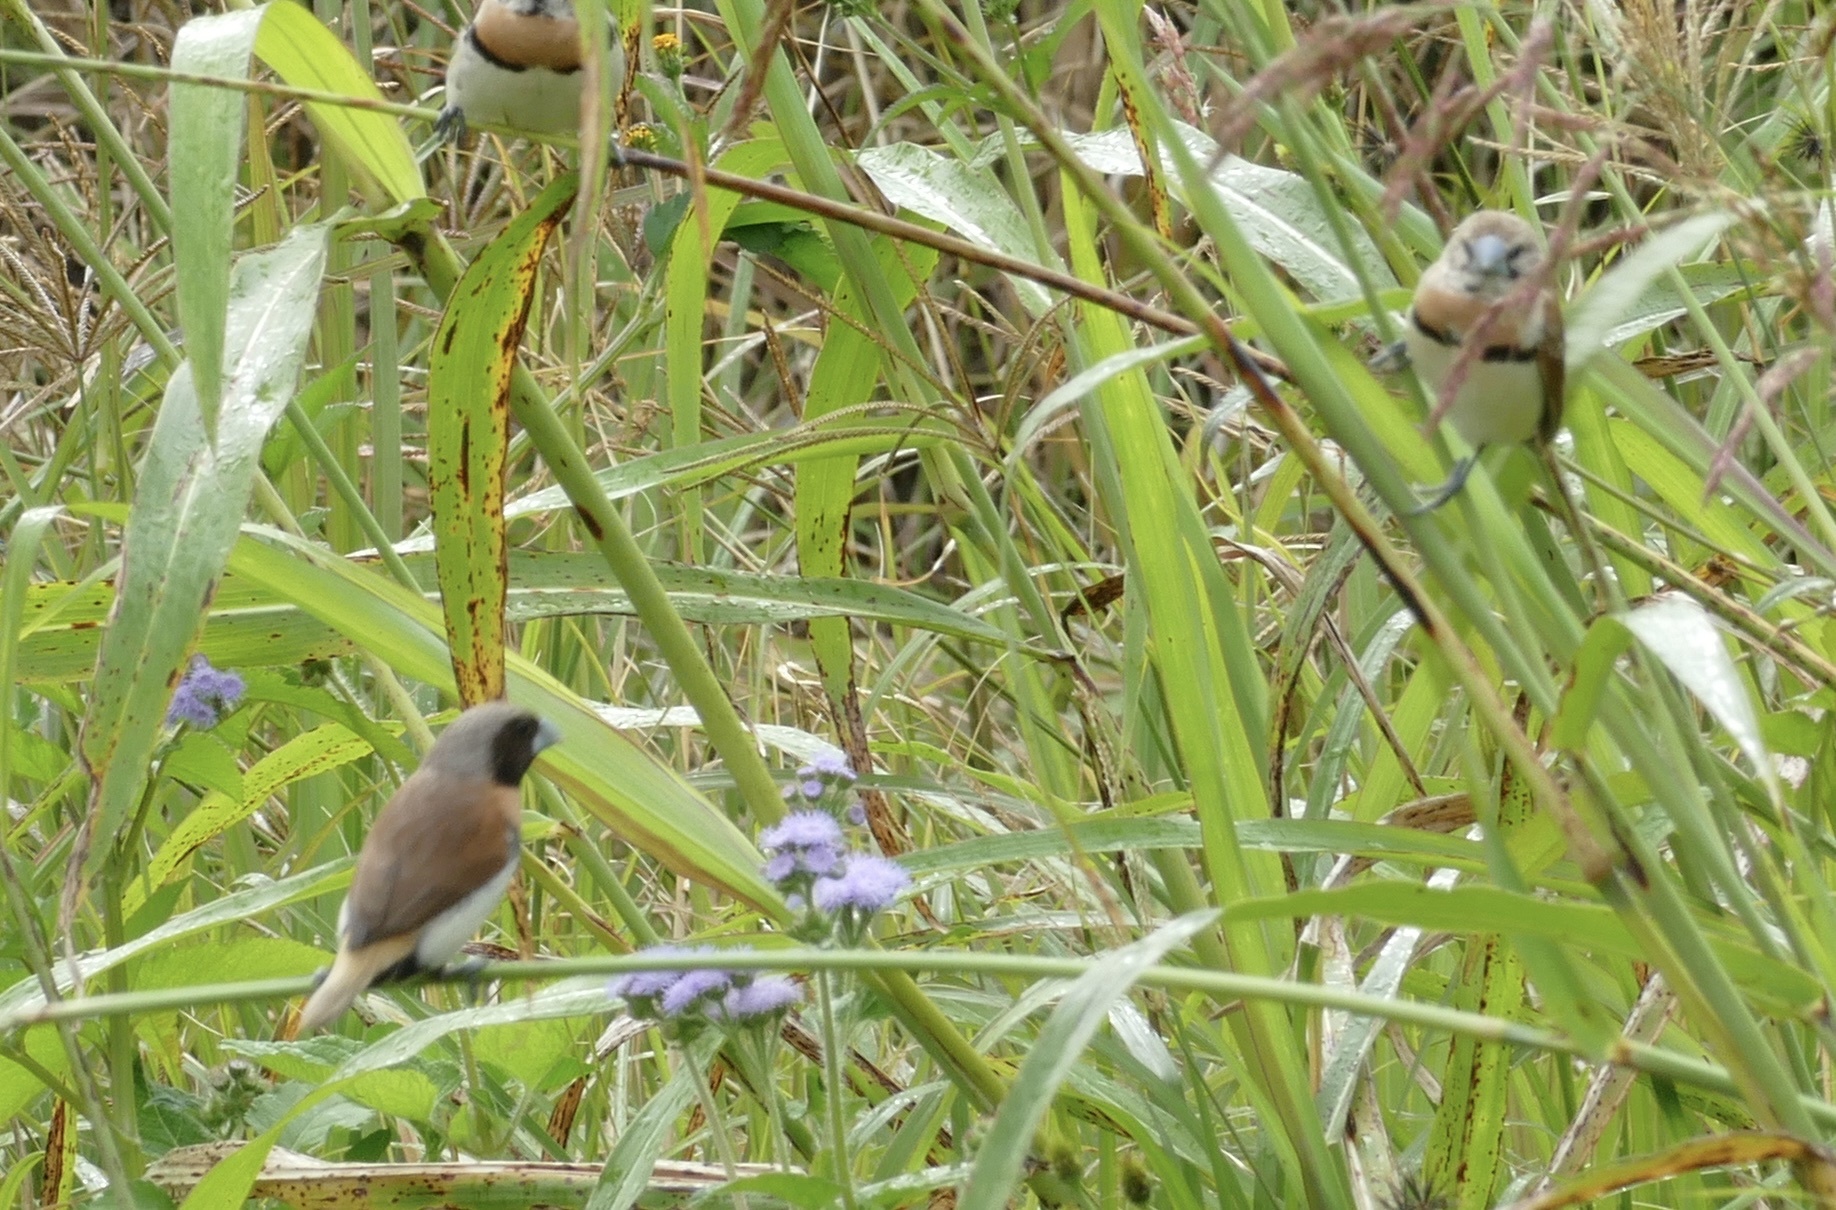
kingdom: Animalia
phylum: Chordata
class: Aves
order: Passeriformes
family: Estrildidae
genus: Lonchura
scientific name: Lonchura castaneothorax
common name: Chestnut-breasted mannikin
